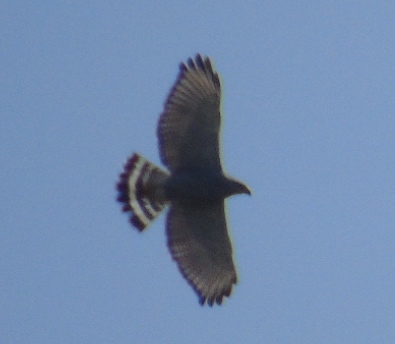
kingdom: Animalia
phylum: Chordata
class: Aves
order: Accipitriformes
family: Accipitridae
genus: Buteo
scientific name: Buteo nitidus
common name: Grey-lined hawk
